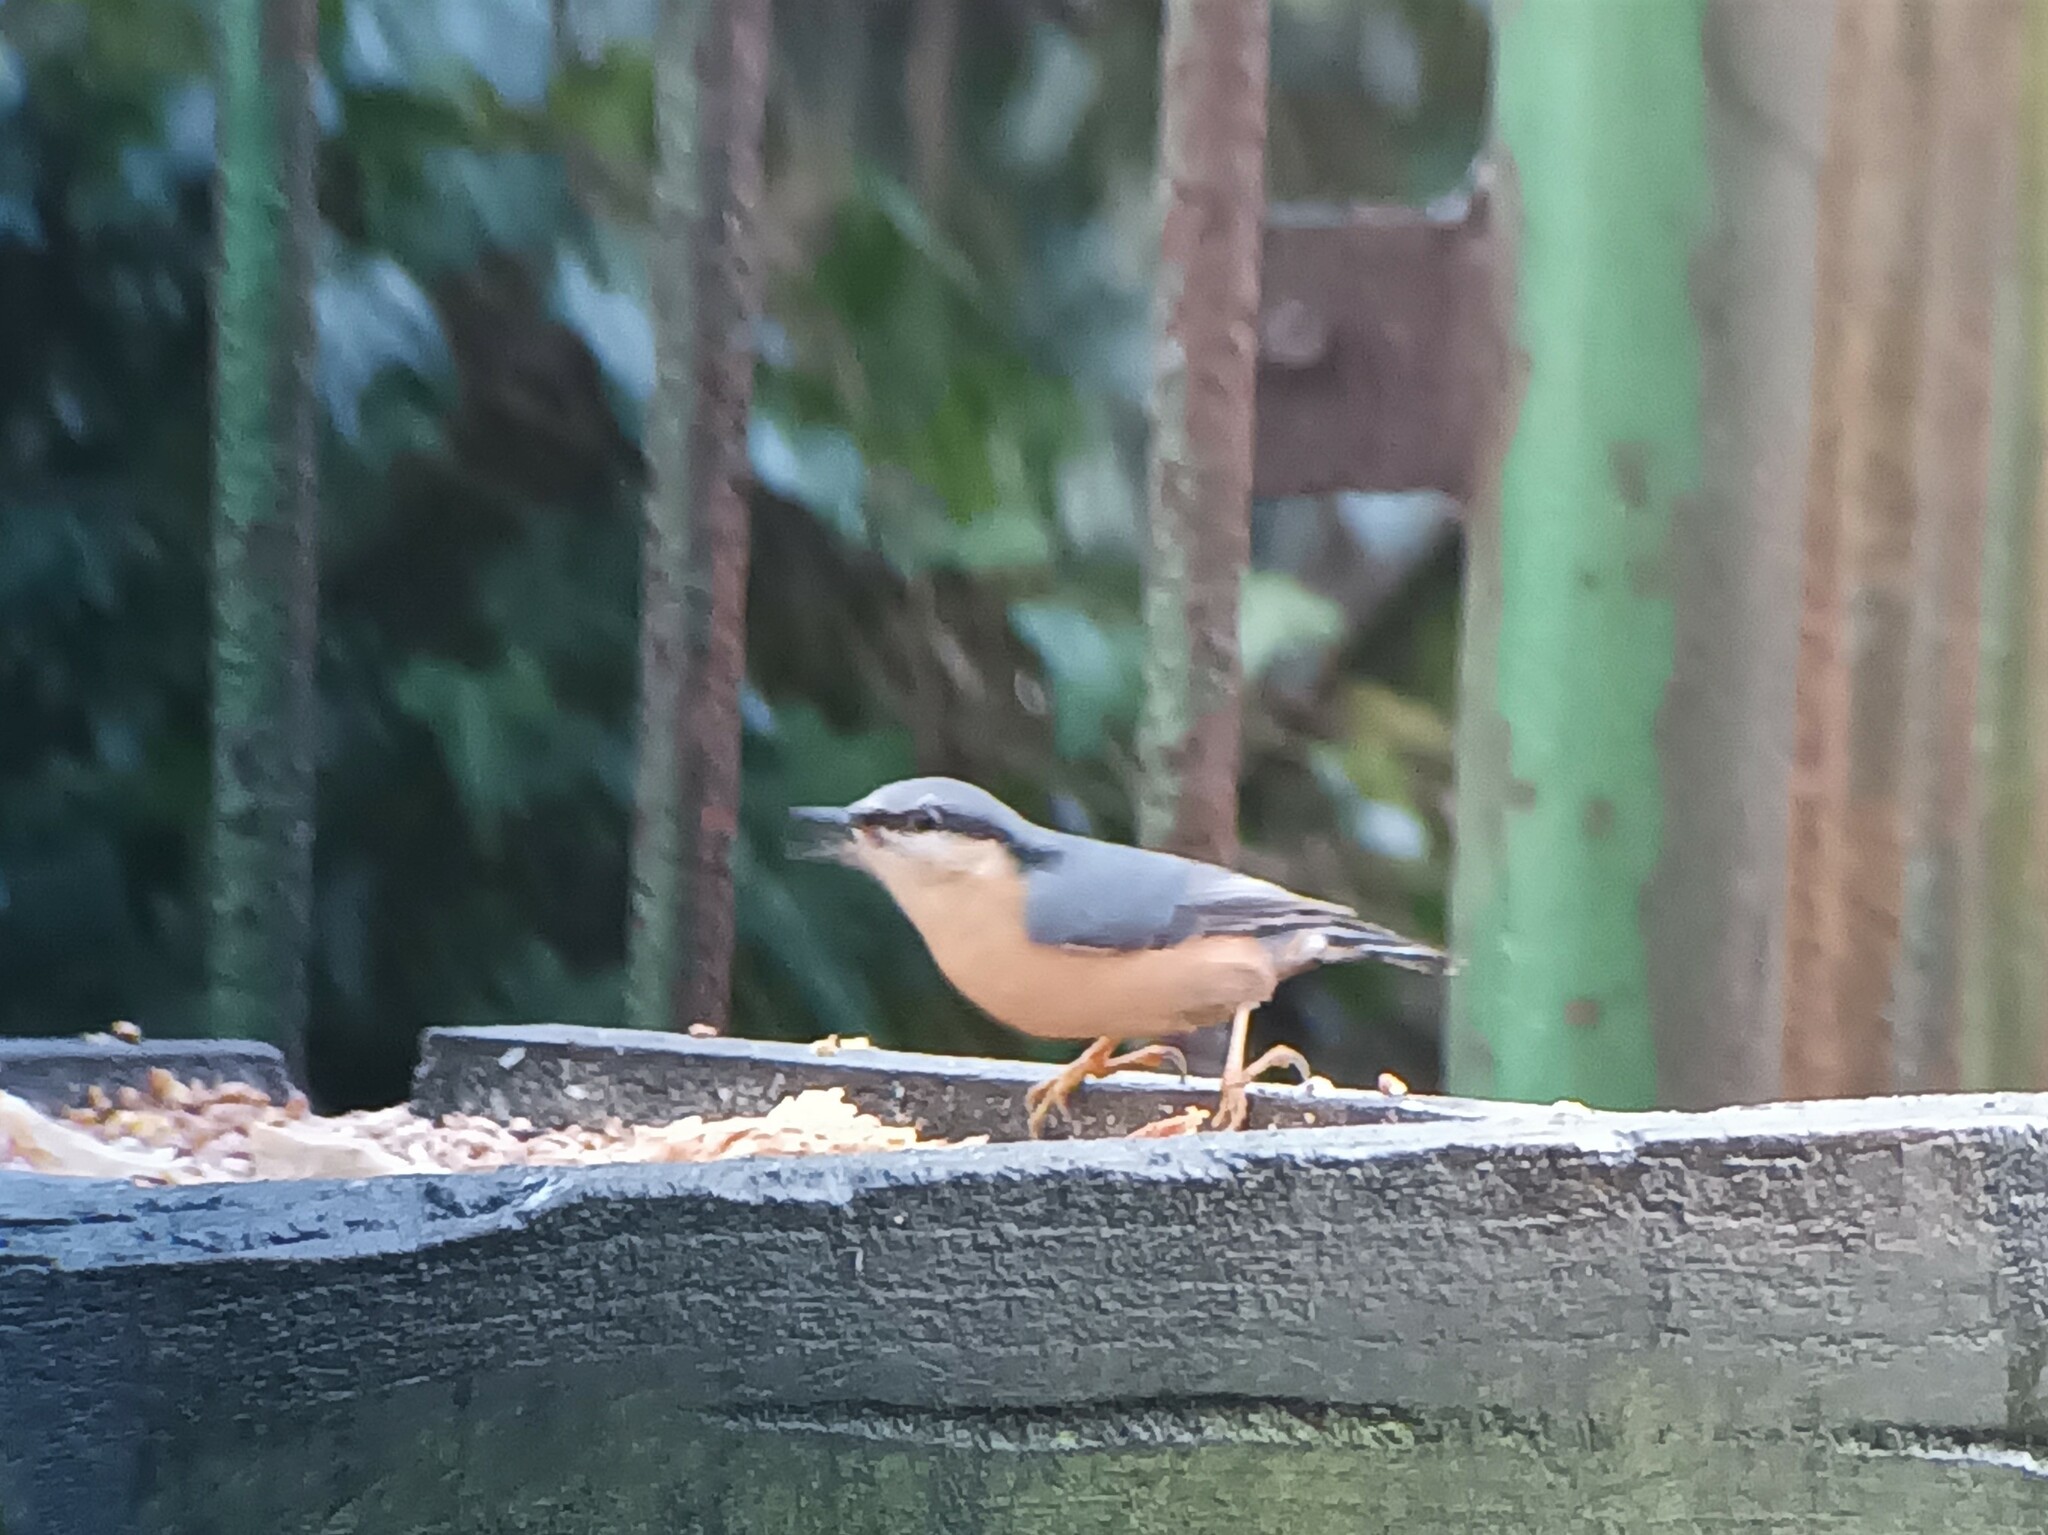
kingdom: Animalia
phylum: Chordata
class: Aves
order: Passeriformes
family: Sittidae
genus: Sitta
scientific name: Sitta europaea
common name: Eurasian nuthatch
